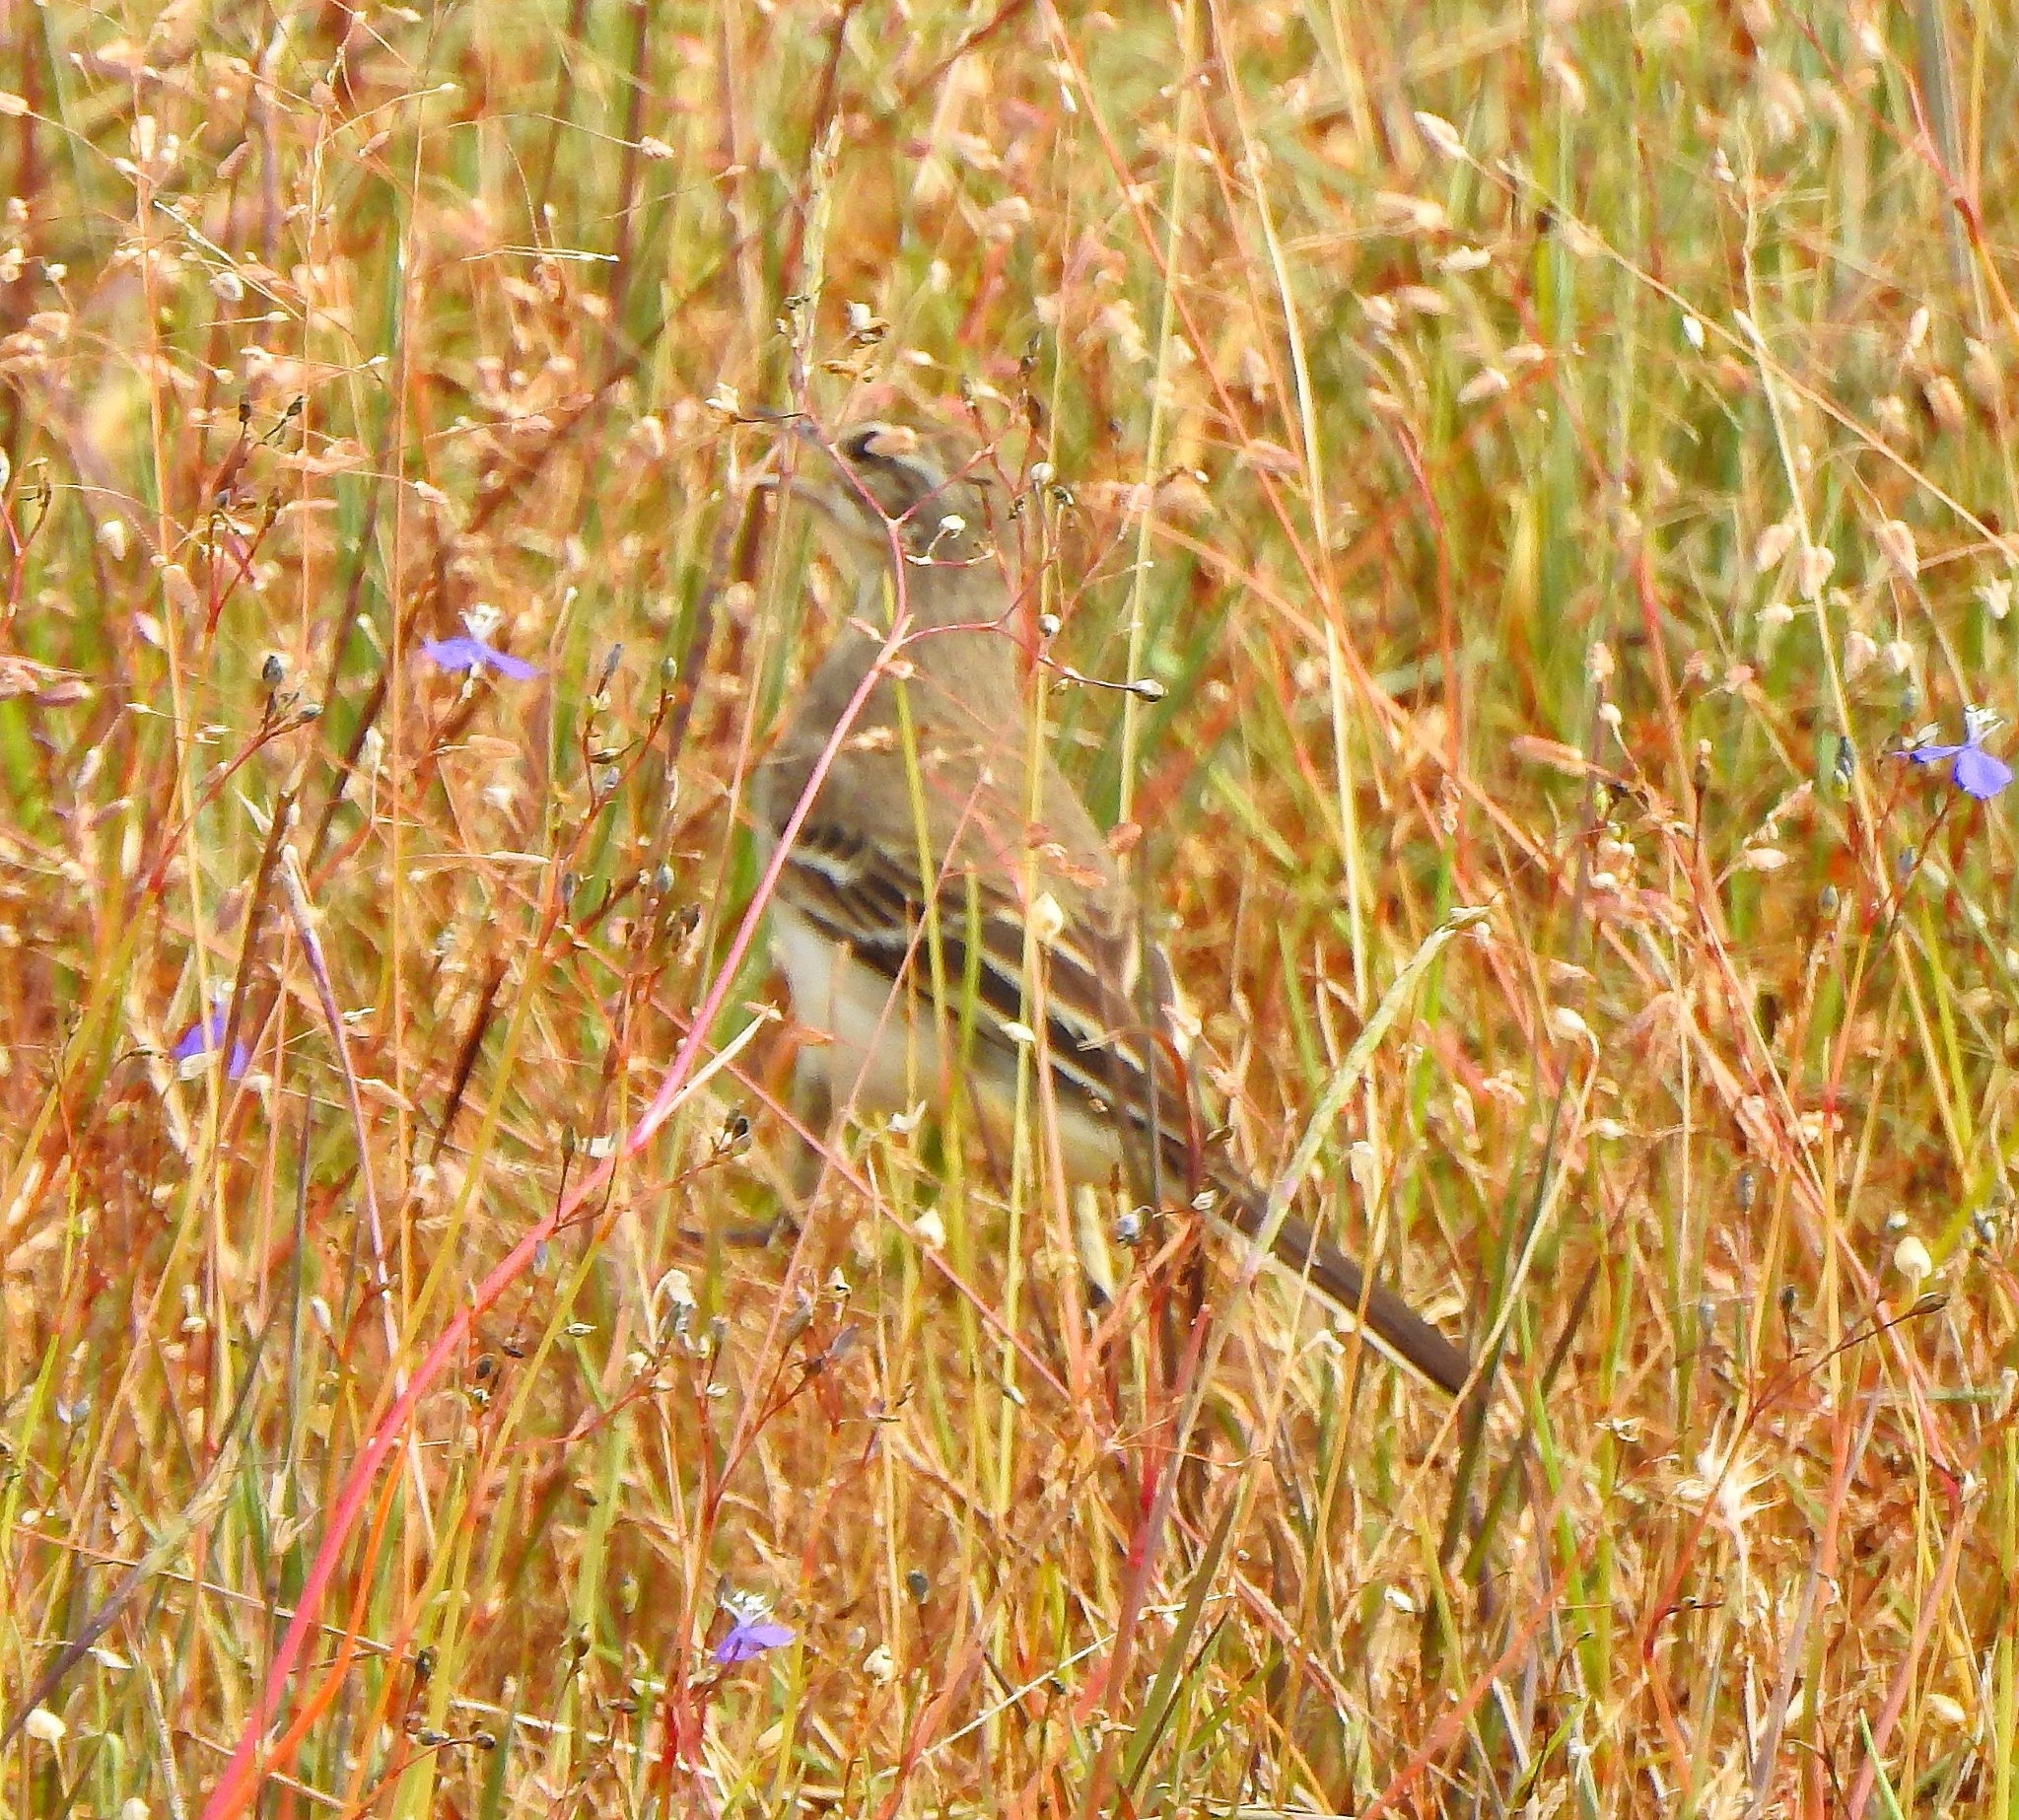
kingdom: Animalia
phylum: Chordata
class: Aves
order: Passeriformes
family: Motacillidae
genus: Motacilla
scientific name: Motacilla flava
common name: Western yellow wagtail
